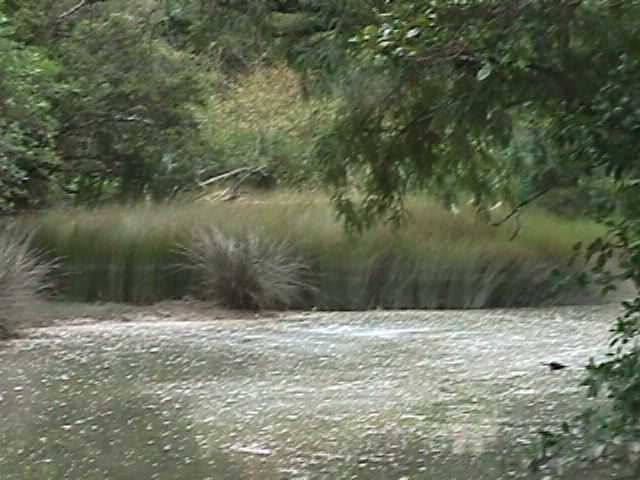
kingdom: Plantae
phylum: Tracheophyta
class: Liliopsida
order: Poales
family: Restionaceae
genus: Apodasmia
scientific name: Apodasmia similis
